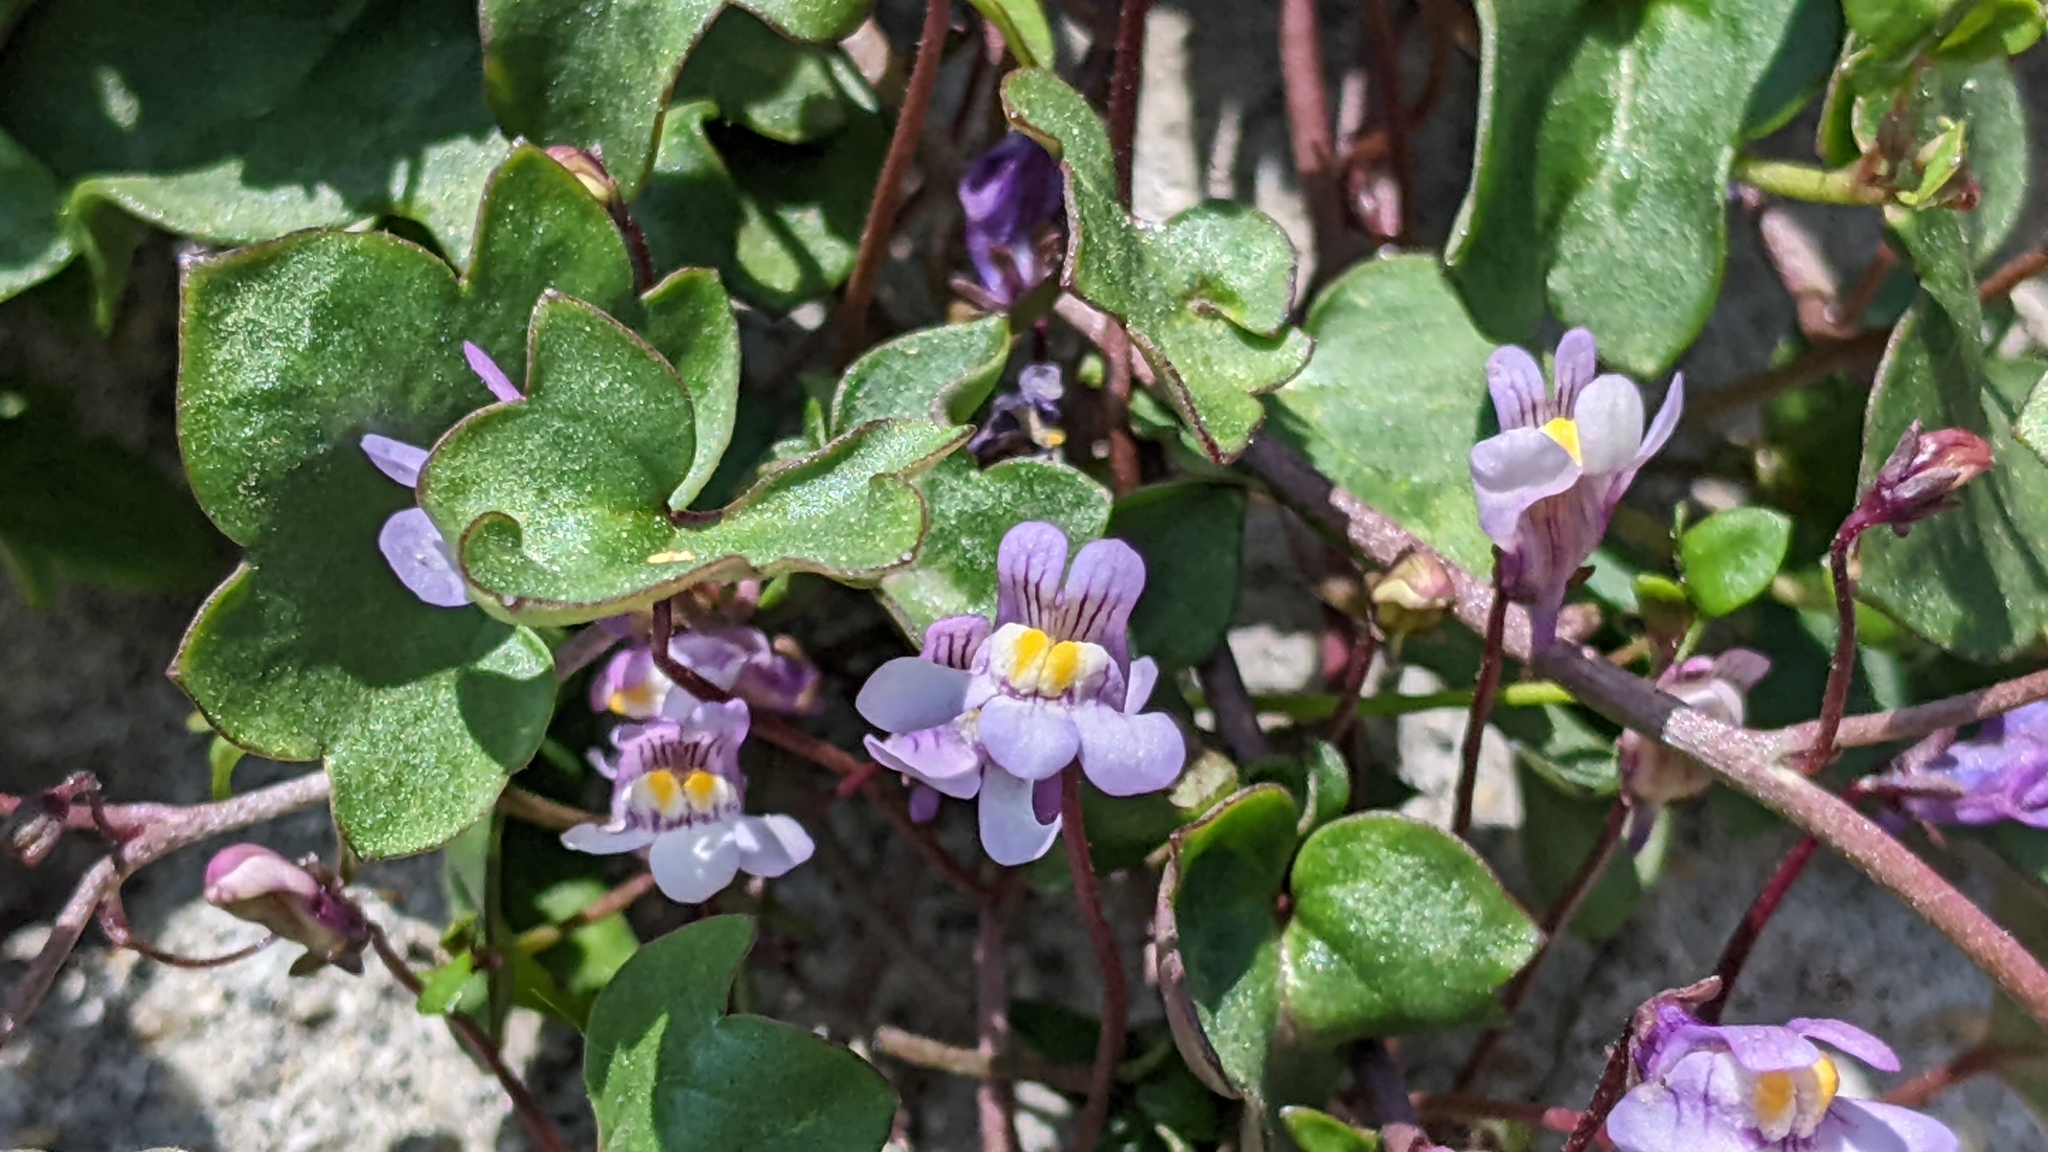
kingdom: Plantae
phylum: Tracheophyta
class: Magnoliopsida
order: Lamiales
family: Plantaginaceae
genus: Cymbalaria
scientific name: Cymbalaria muralis
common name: Ivy-leaved toadflax
